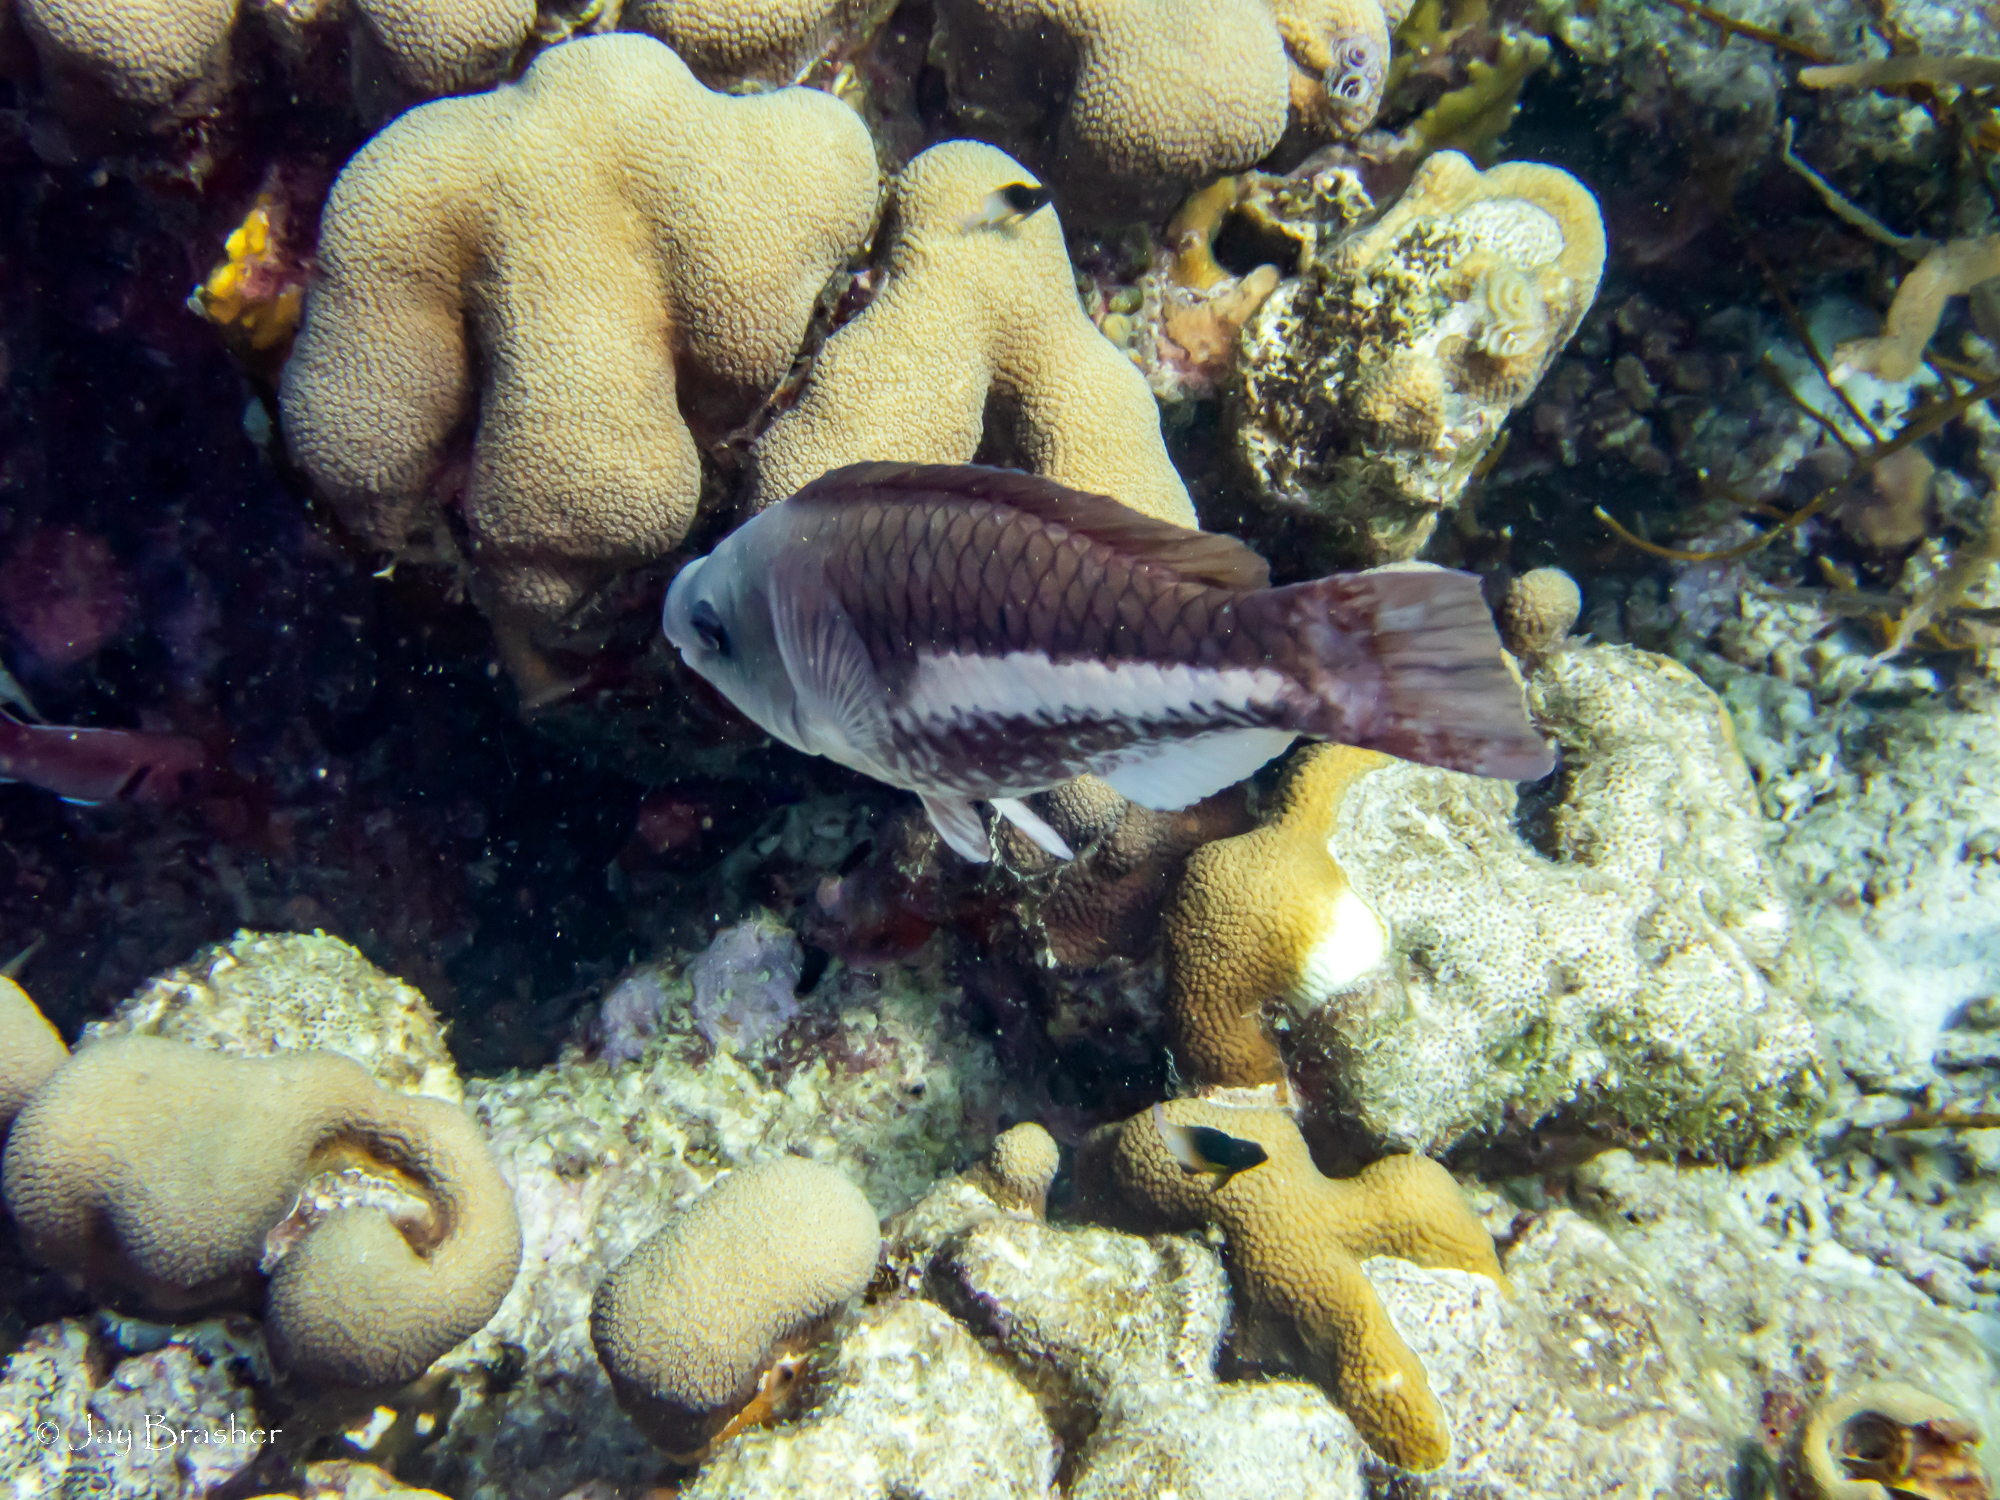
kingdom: Animalia
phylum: Chordata
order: Perciformes
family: Scaridae
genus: Scarus
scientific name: Scarus vetula
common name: Queen parrotfish
